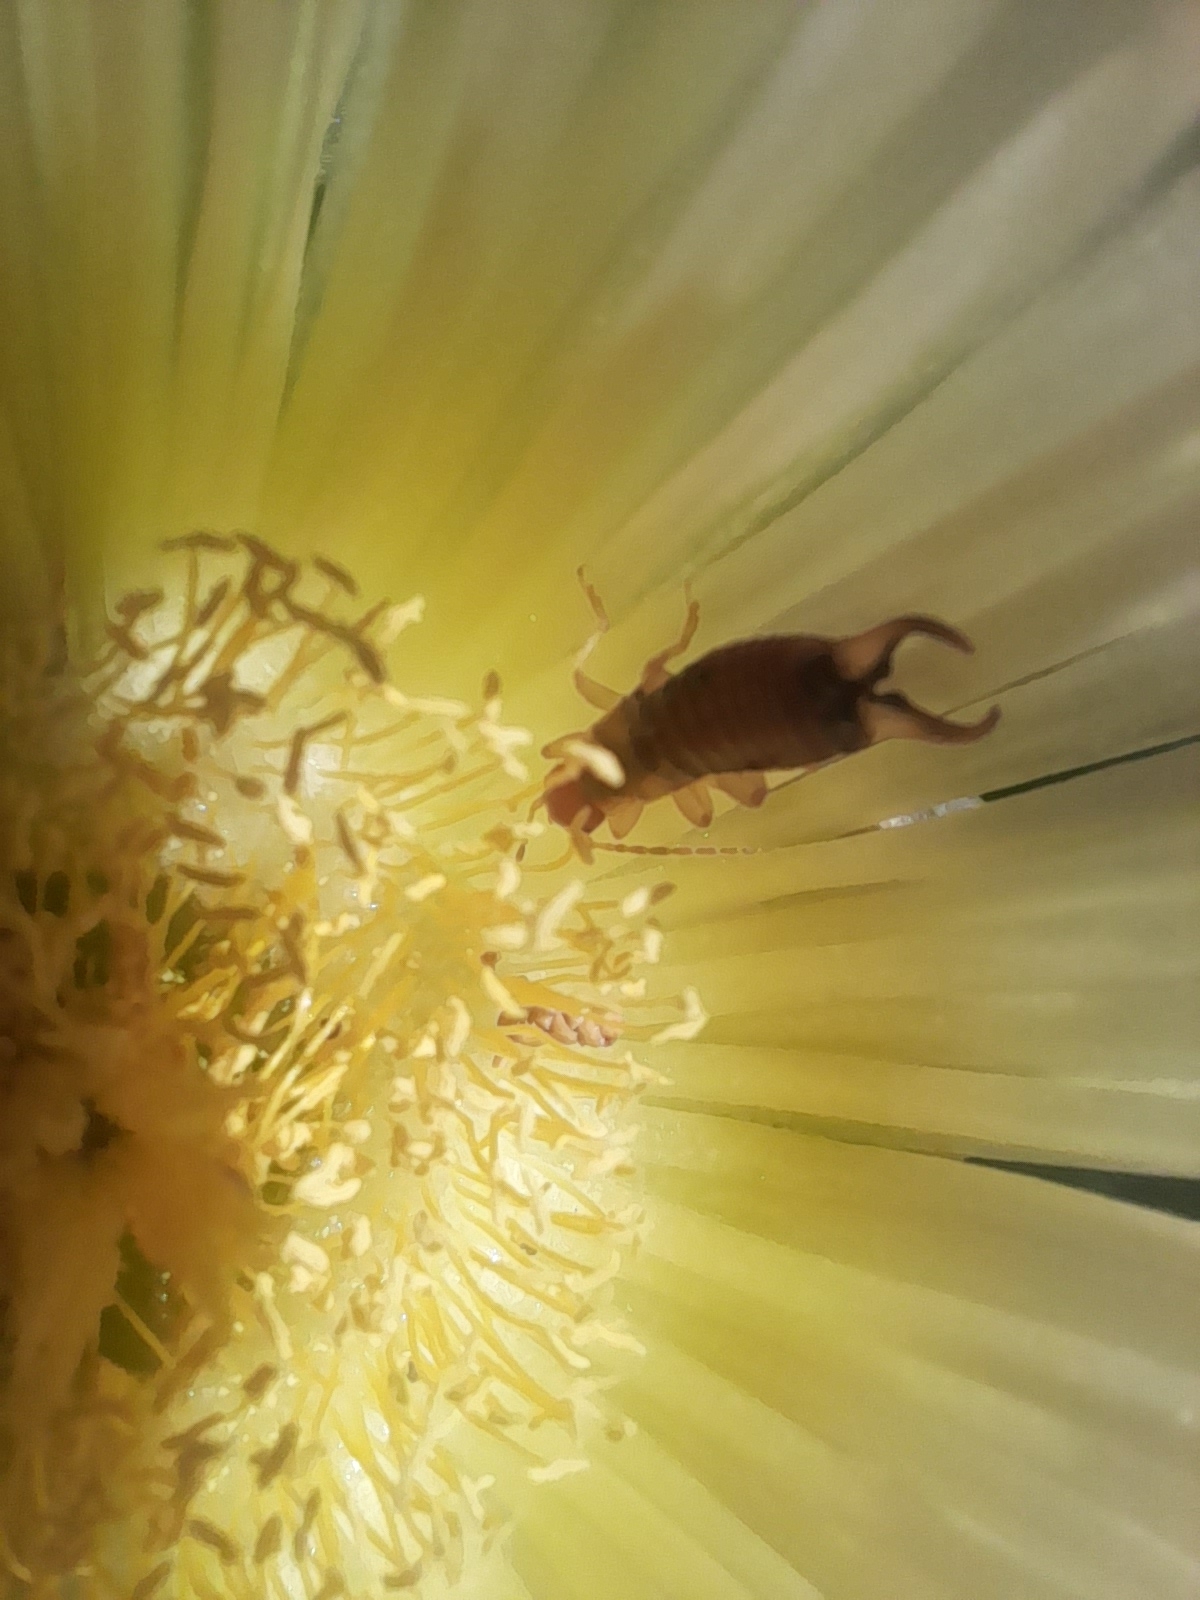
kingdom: Animalia
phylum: Arthropoda
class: Insecta
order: Dermaptera
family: Forficulidae
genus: Forficula
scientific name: Forficula decipiens
